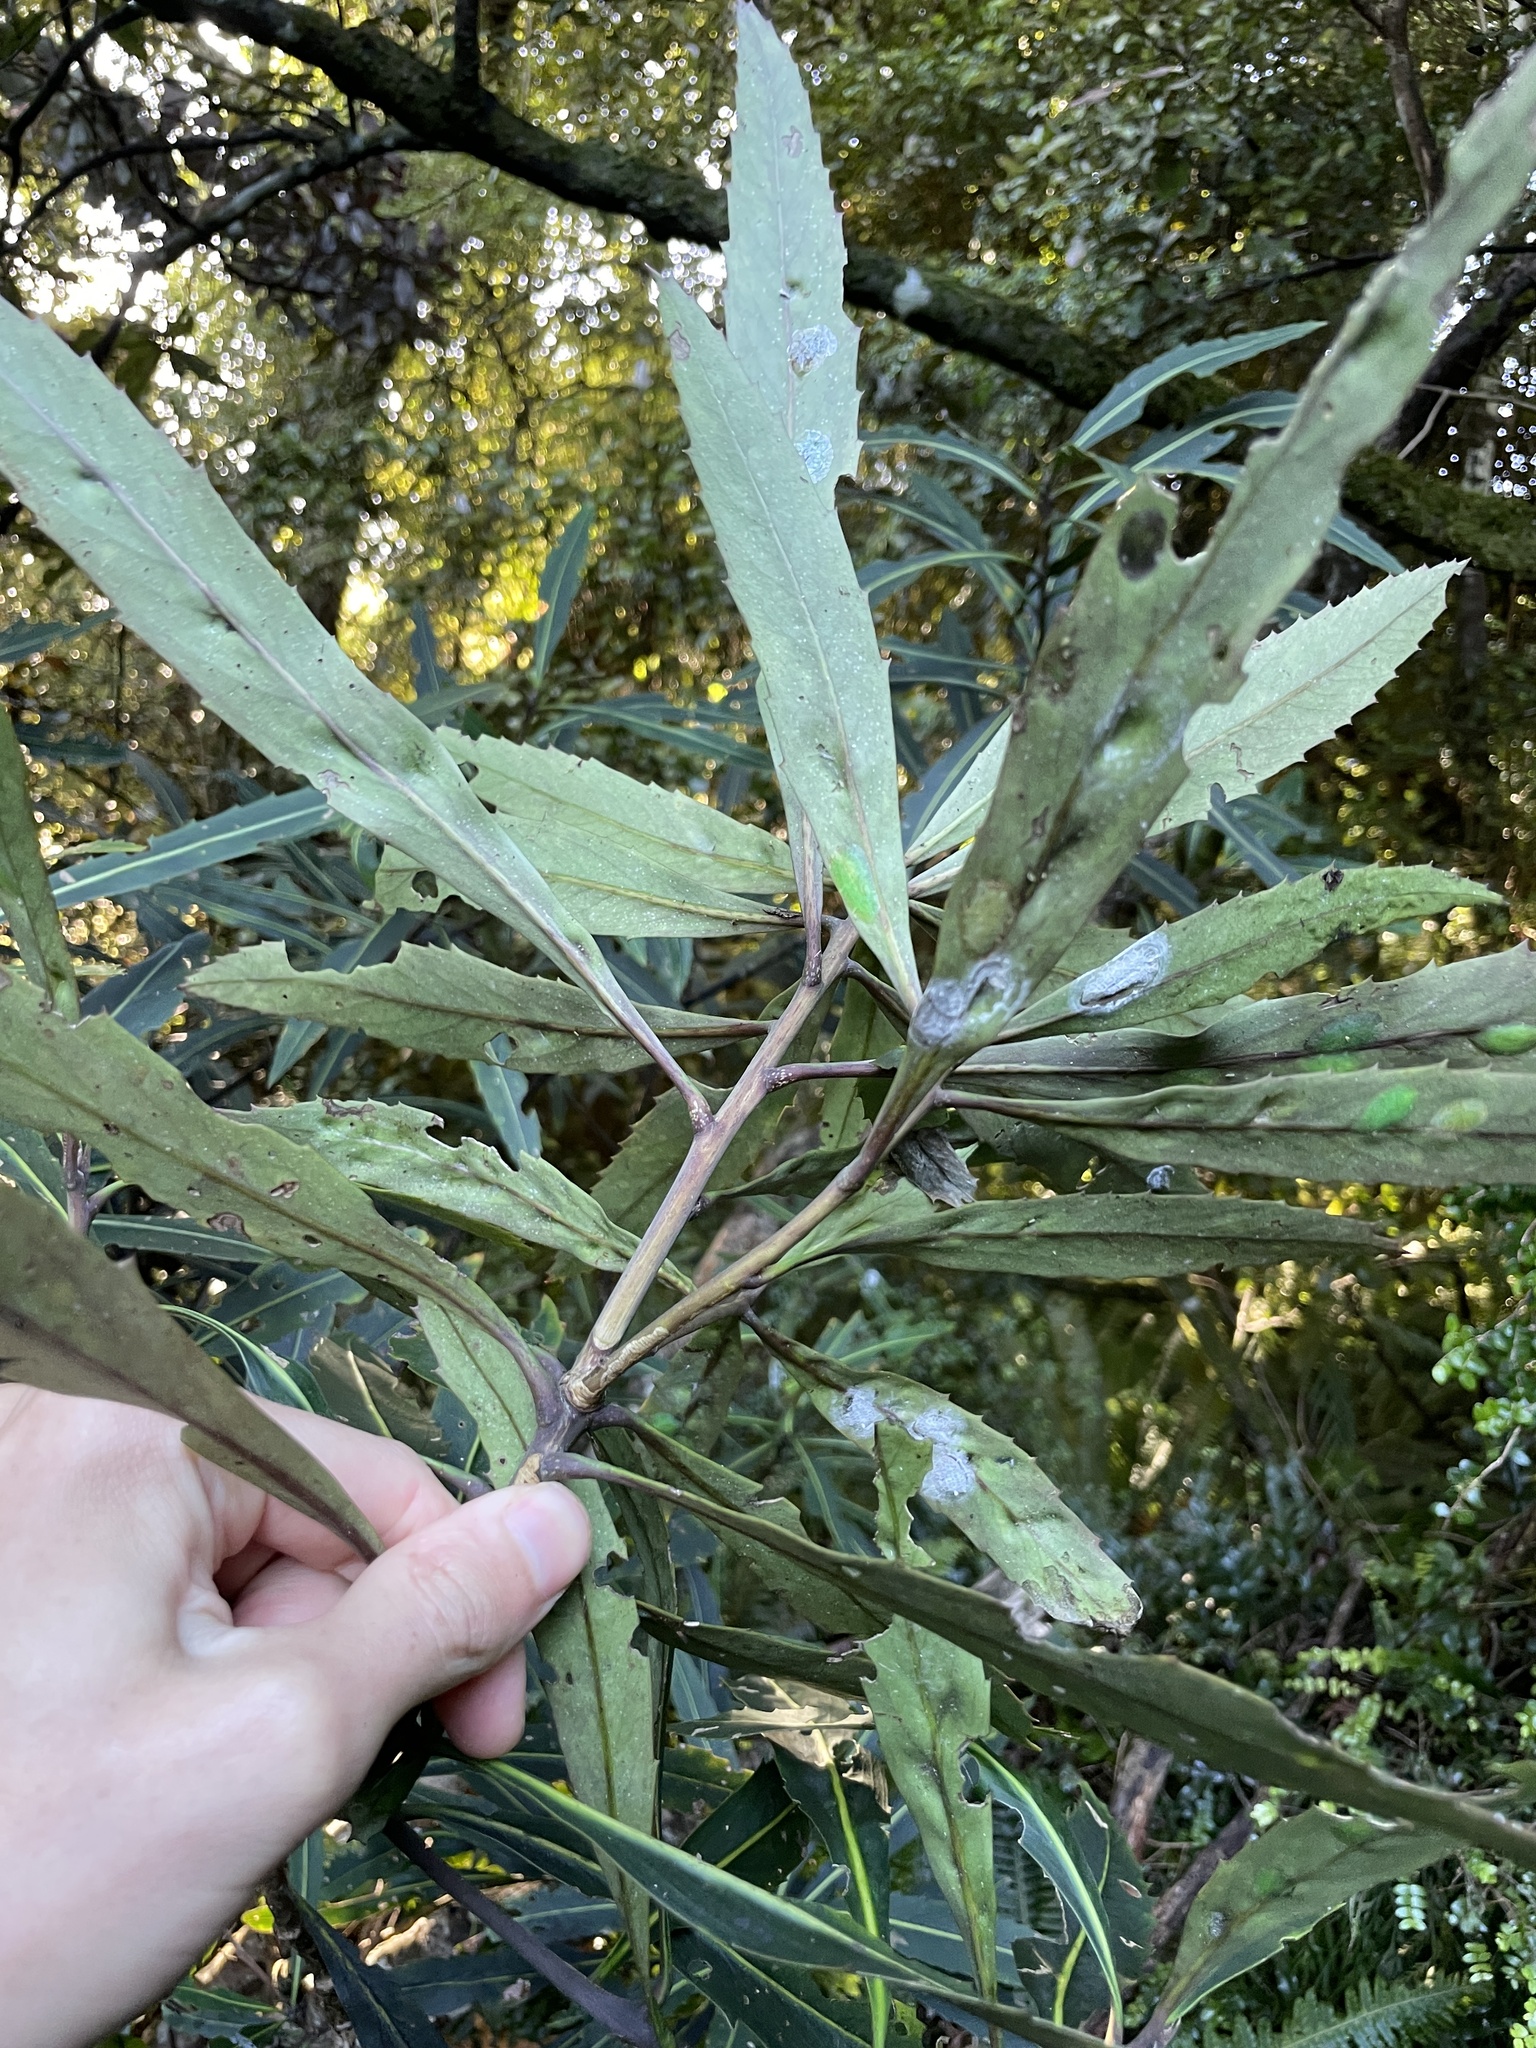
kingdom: Plantae
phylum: Tracheophyta
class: Magnoliopsida
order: Apiales
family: Araliaceae
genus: Pseudopanax
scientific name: Pseudopanax crassifolius
